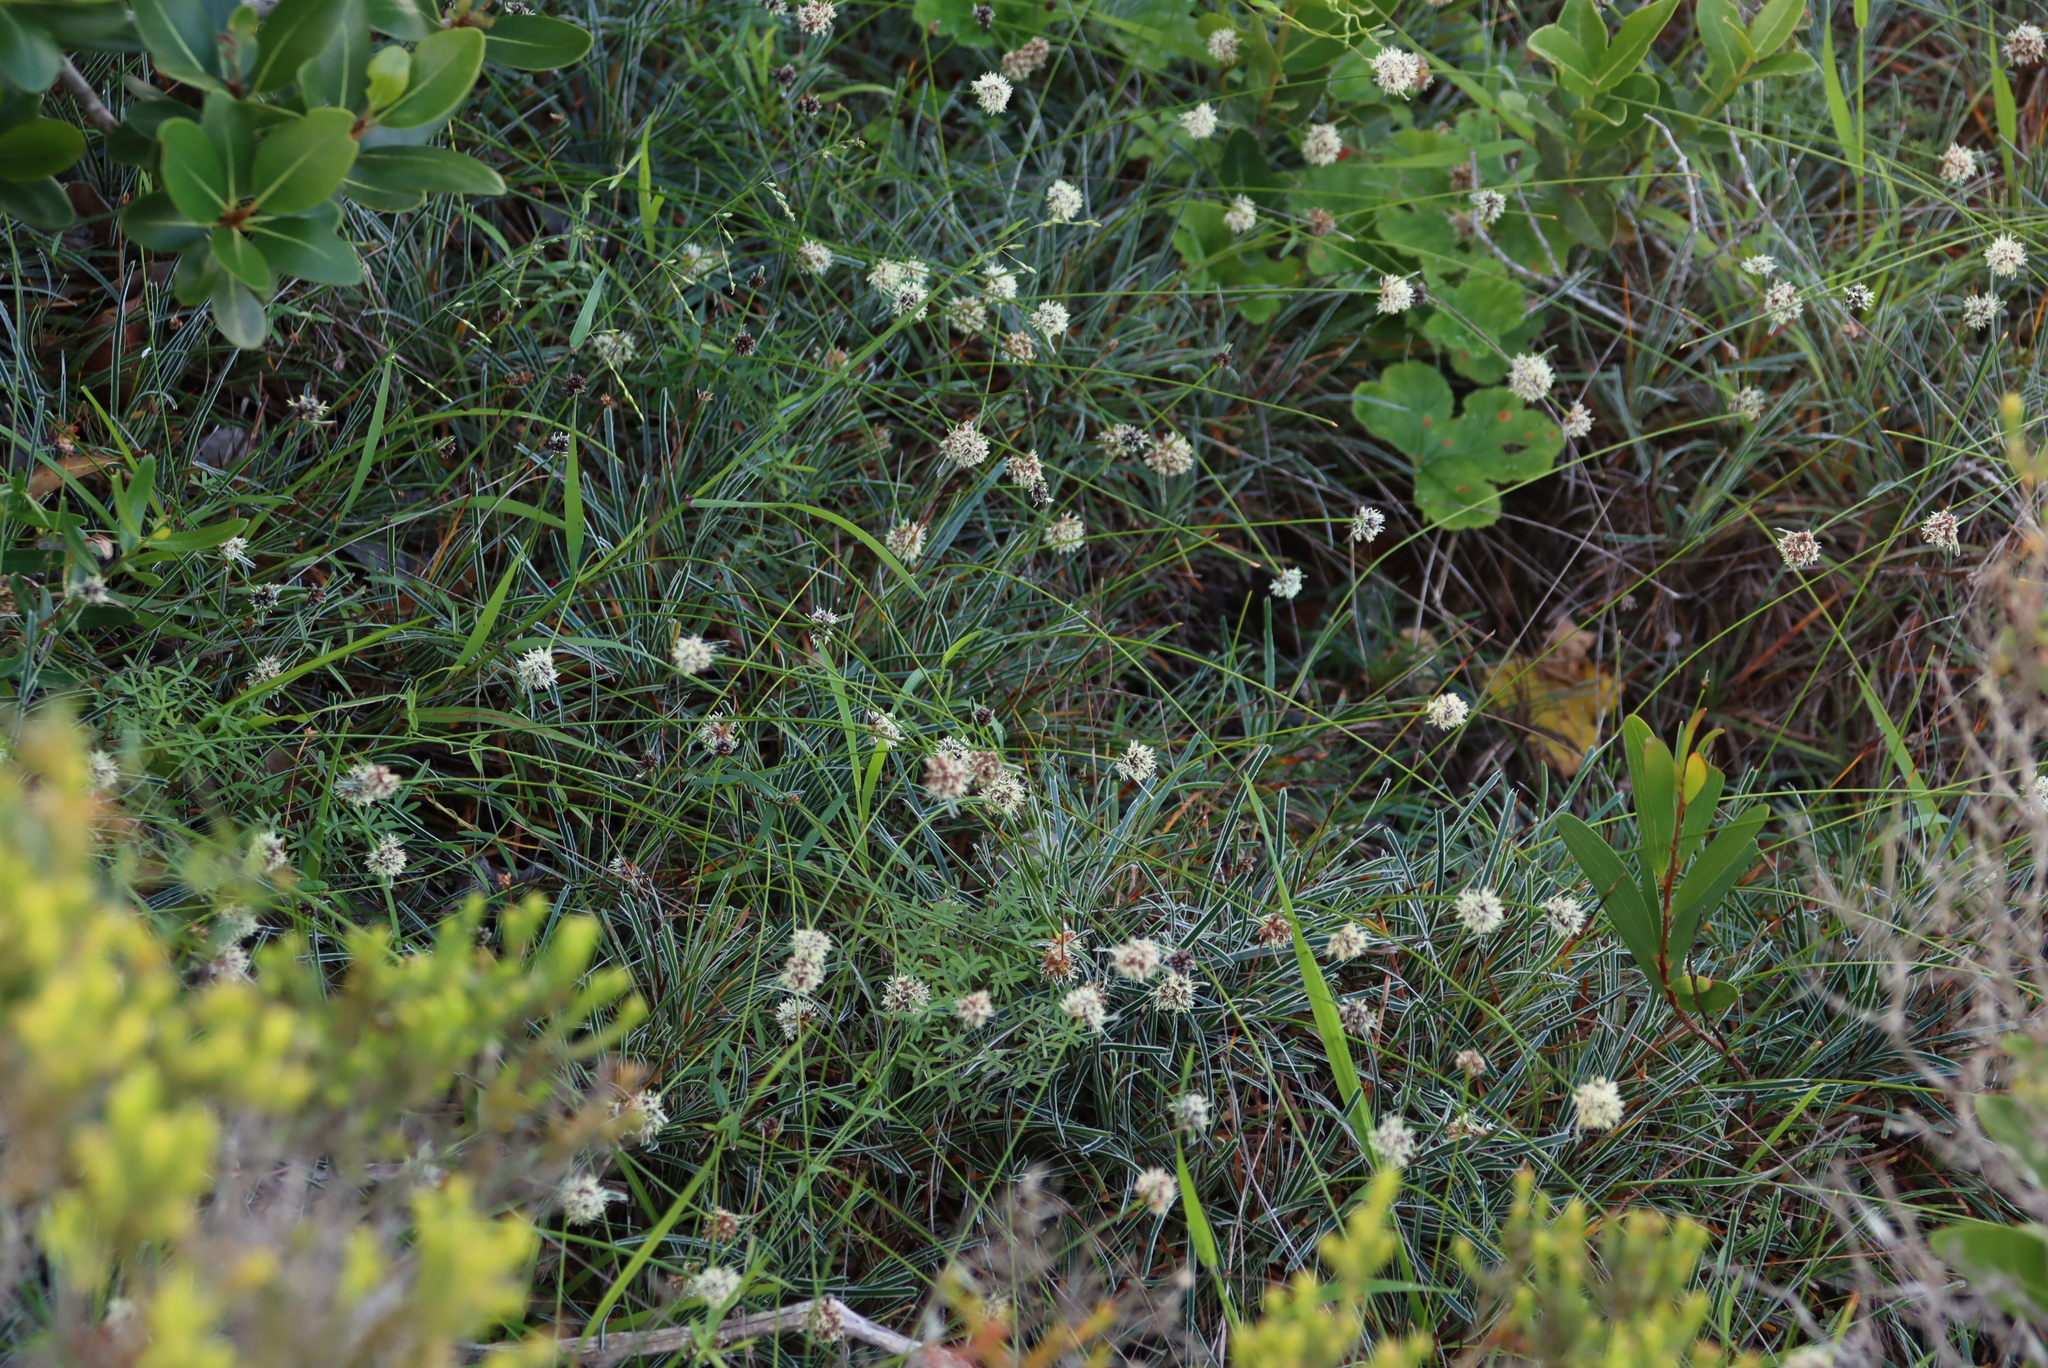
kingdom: Plantae
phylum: Tracheophyta
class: Liliopsida
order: Poales
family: Cyperaceae
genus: Ficinia
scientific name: Ficinia truncata
